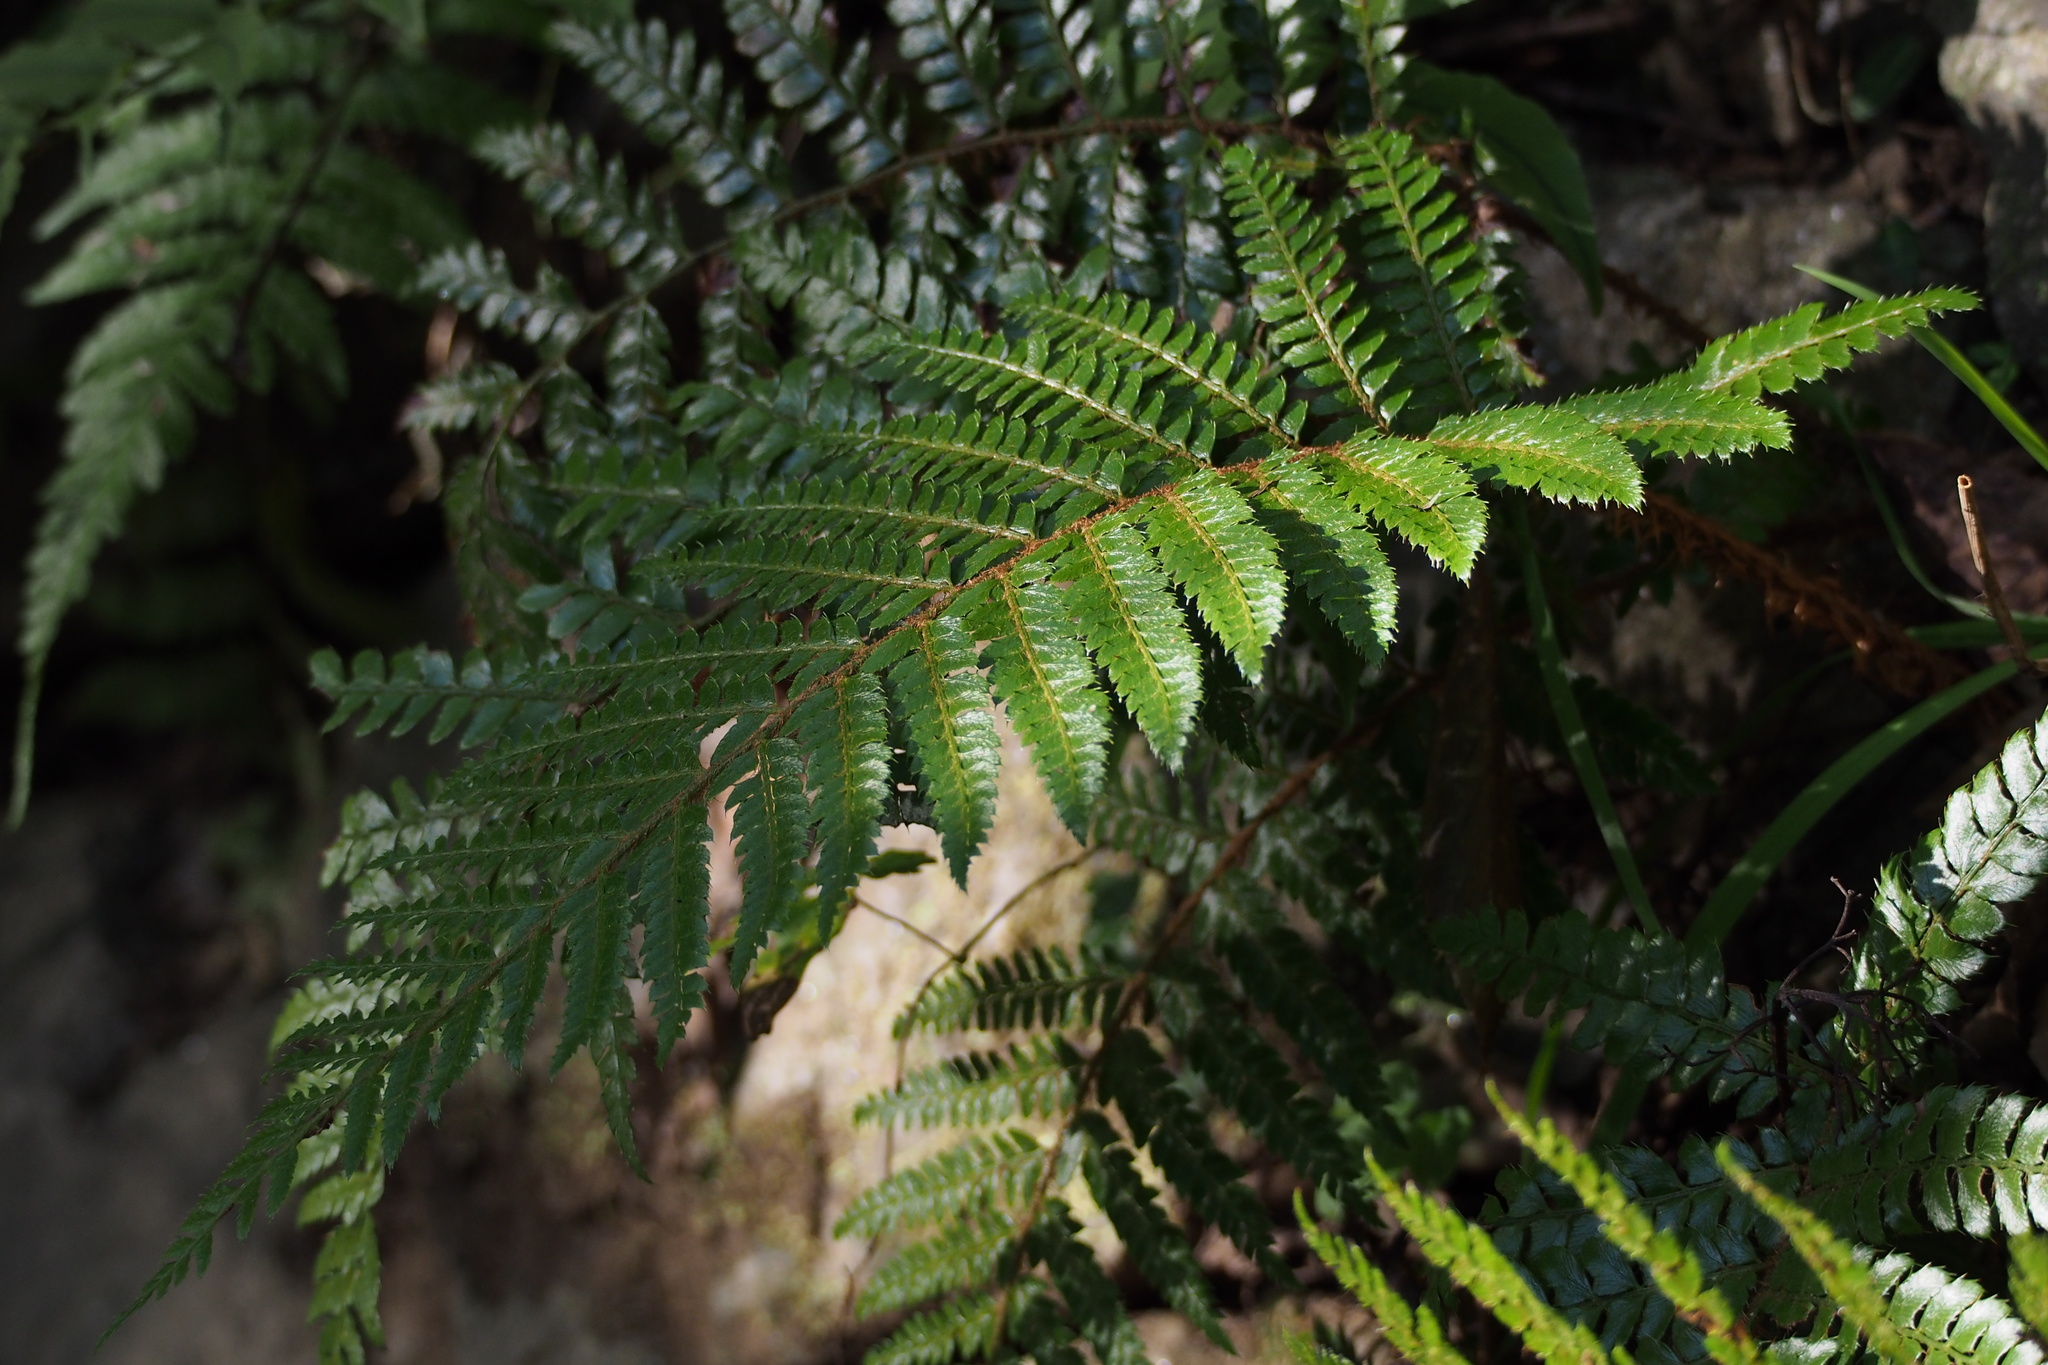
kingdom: Plantae
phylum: Tracheophyta
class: Polypodiopsida
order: Polypodiales
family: Dryopteridaceae
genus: Polystichum
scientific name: Polystichum luctuosum
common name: Korean rockfern
